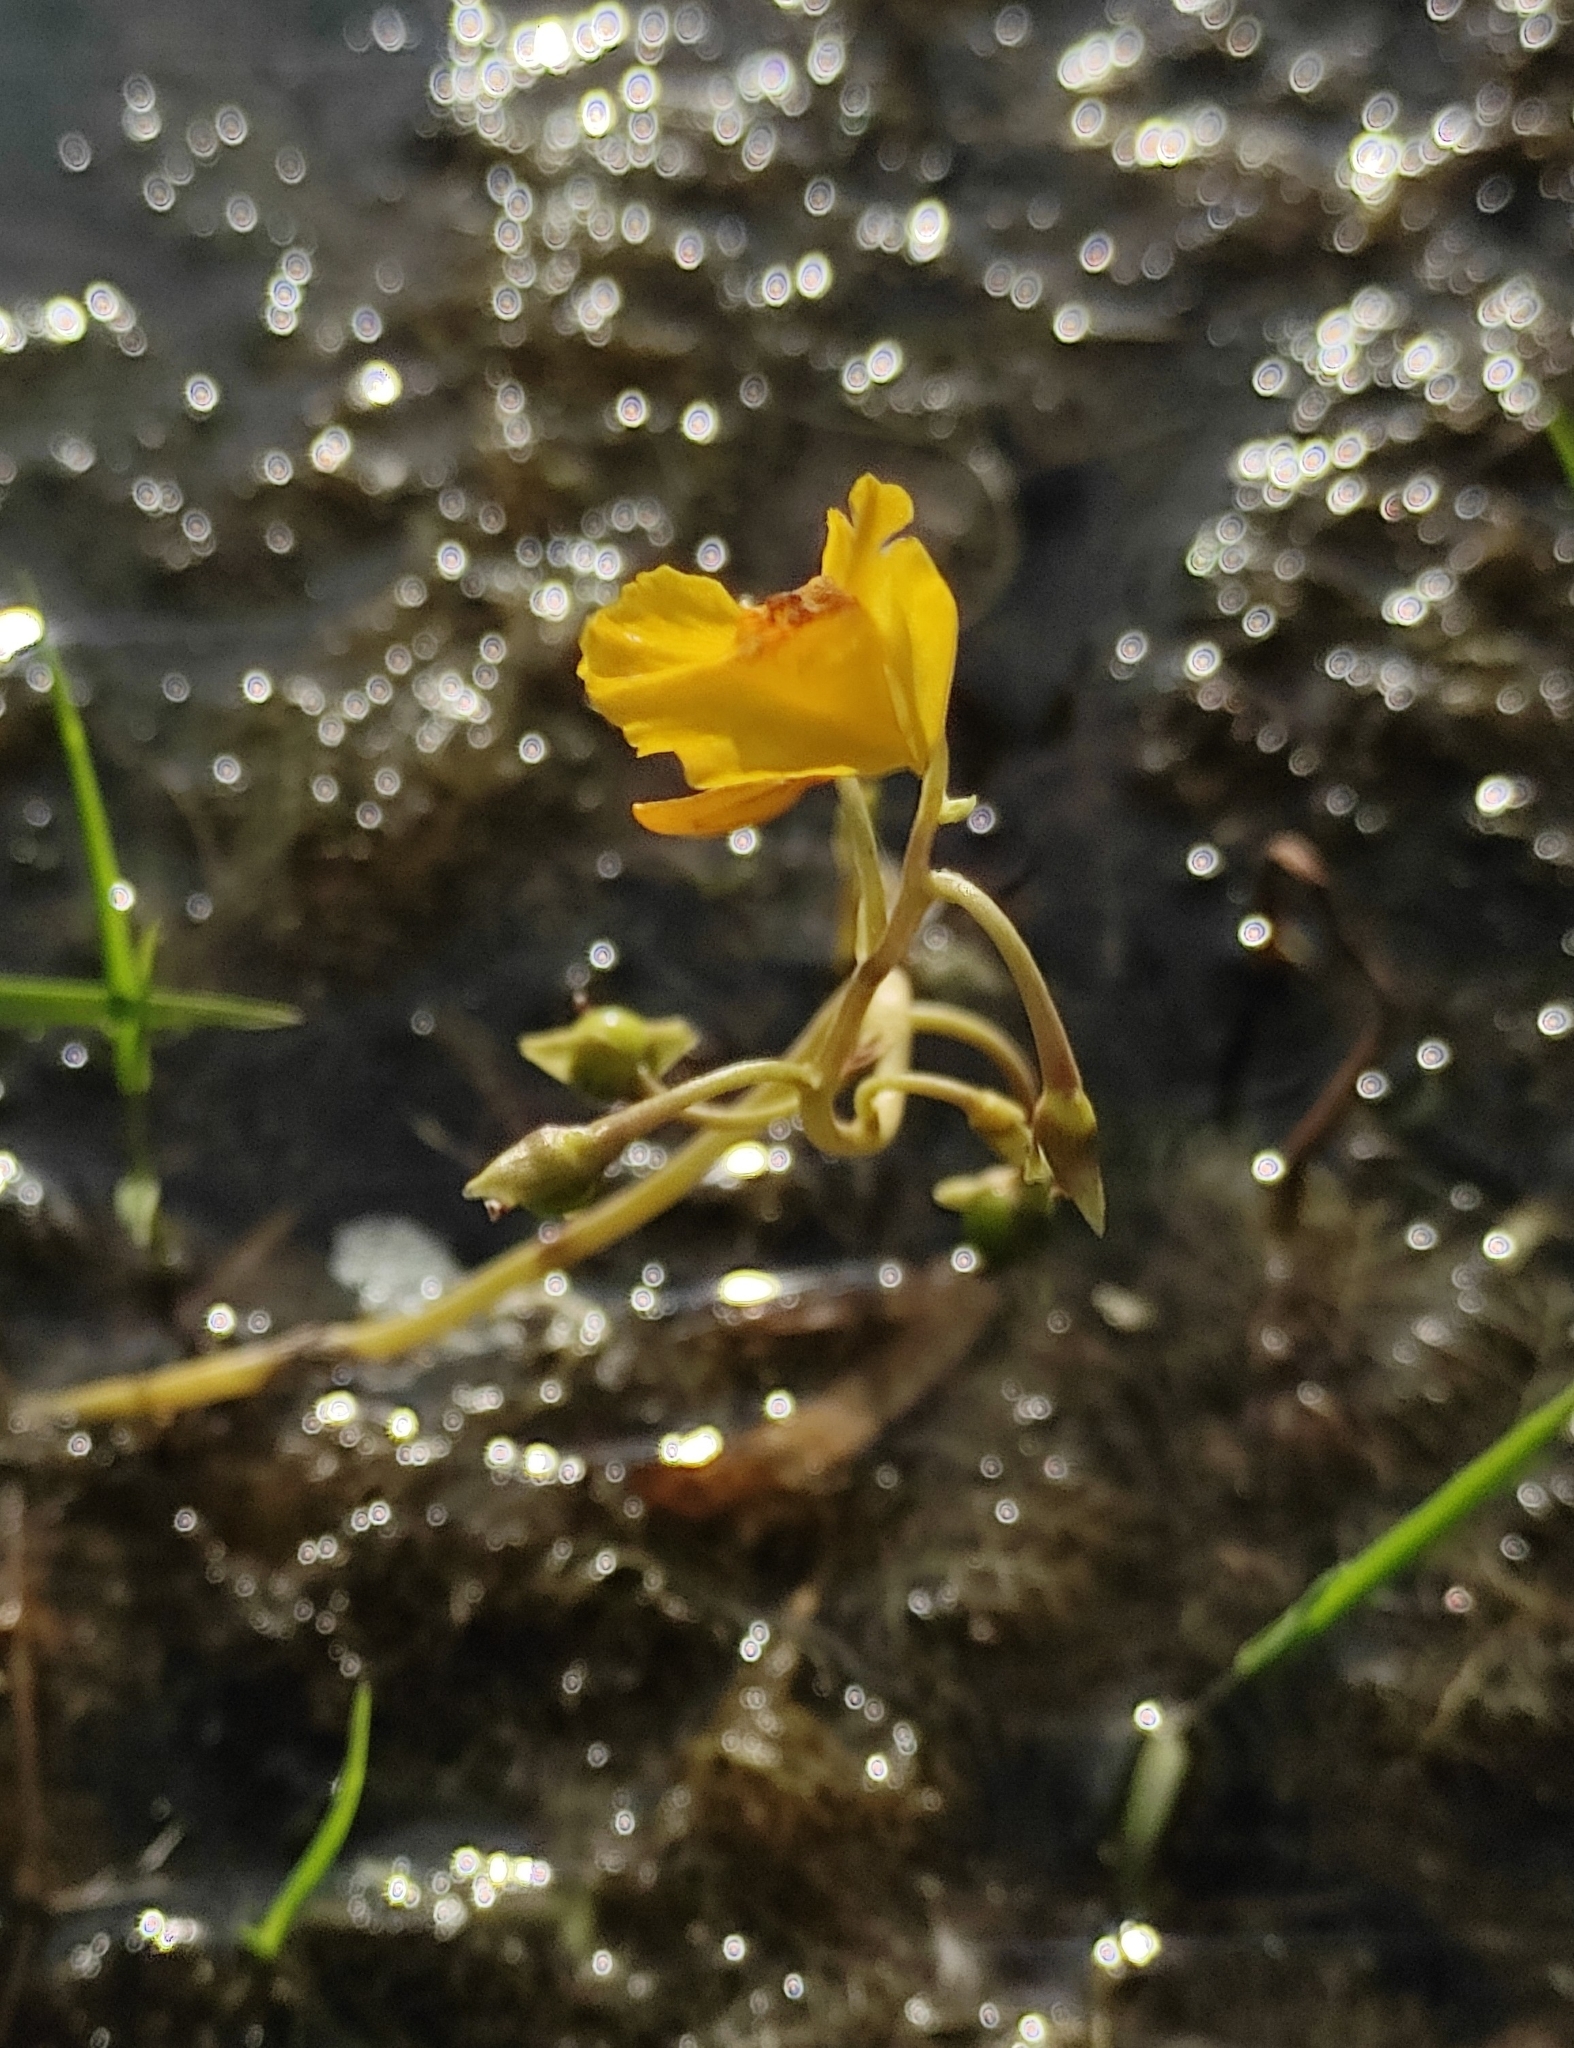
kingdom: Plantae
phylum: Tracheophyta
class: Magnoliopsida
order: Lamiales
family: Lentibulariaceae
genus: Utricularia
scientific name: Utricularia macrorhiza
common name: Common bladderwort
